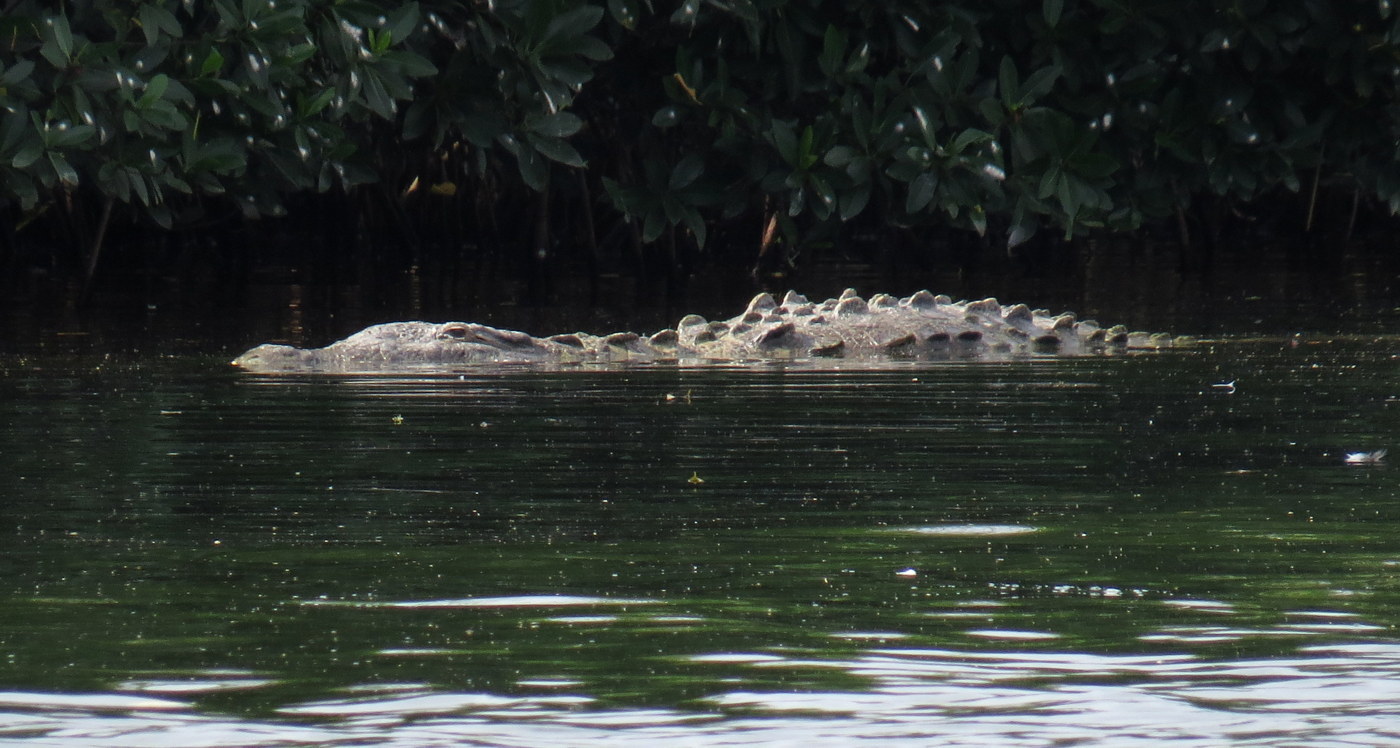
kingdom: Animalia
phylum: Chordata
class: Crocodylia
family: Crocodylidae
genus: Crocodylus
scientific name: Crocodylus acutus
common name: American crocodile
